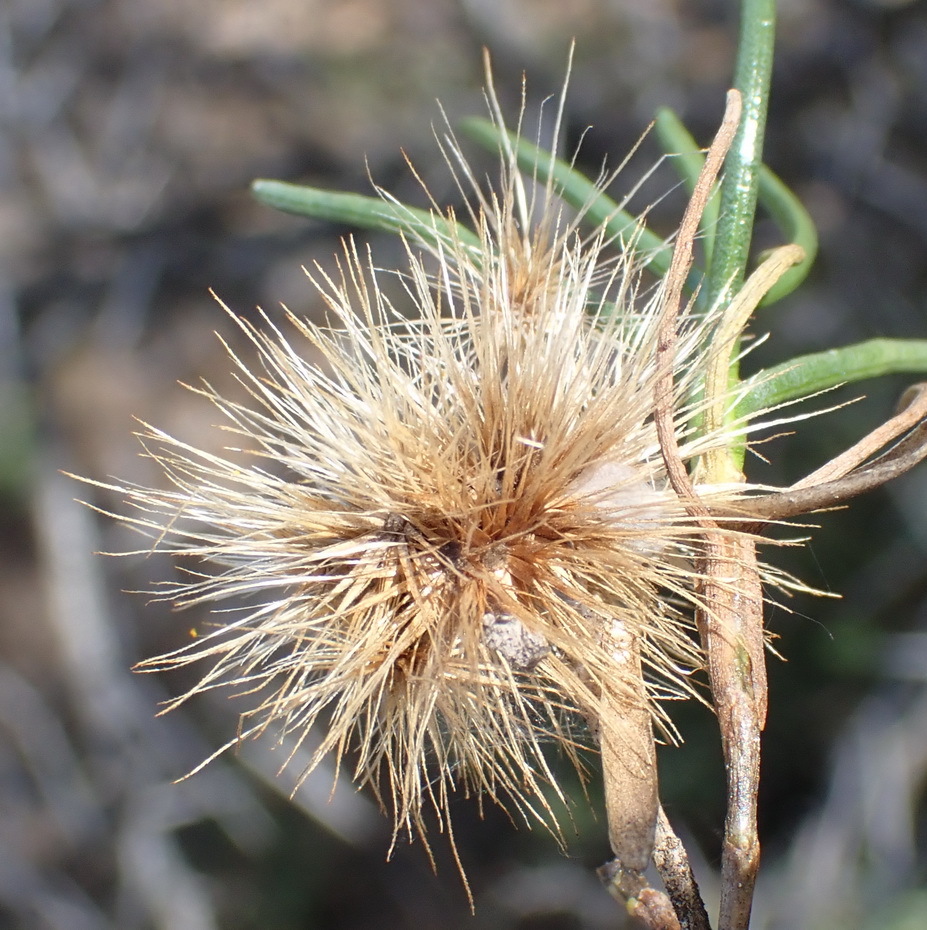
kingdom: Plantae
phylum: Tracheophyta
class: Magnoliopsida
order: Asterales
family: Asteraceae
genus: Pteronia
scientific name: Pteronia flexicaulis
